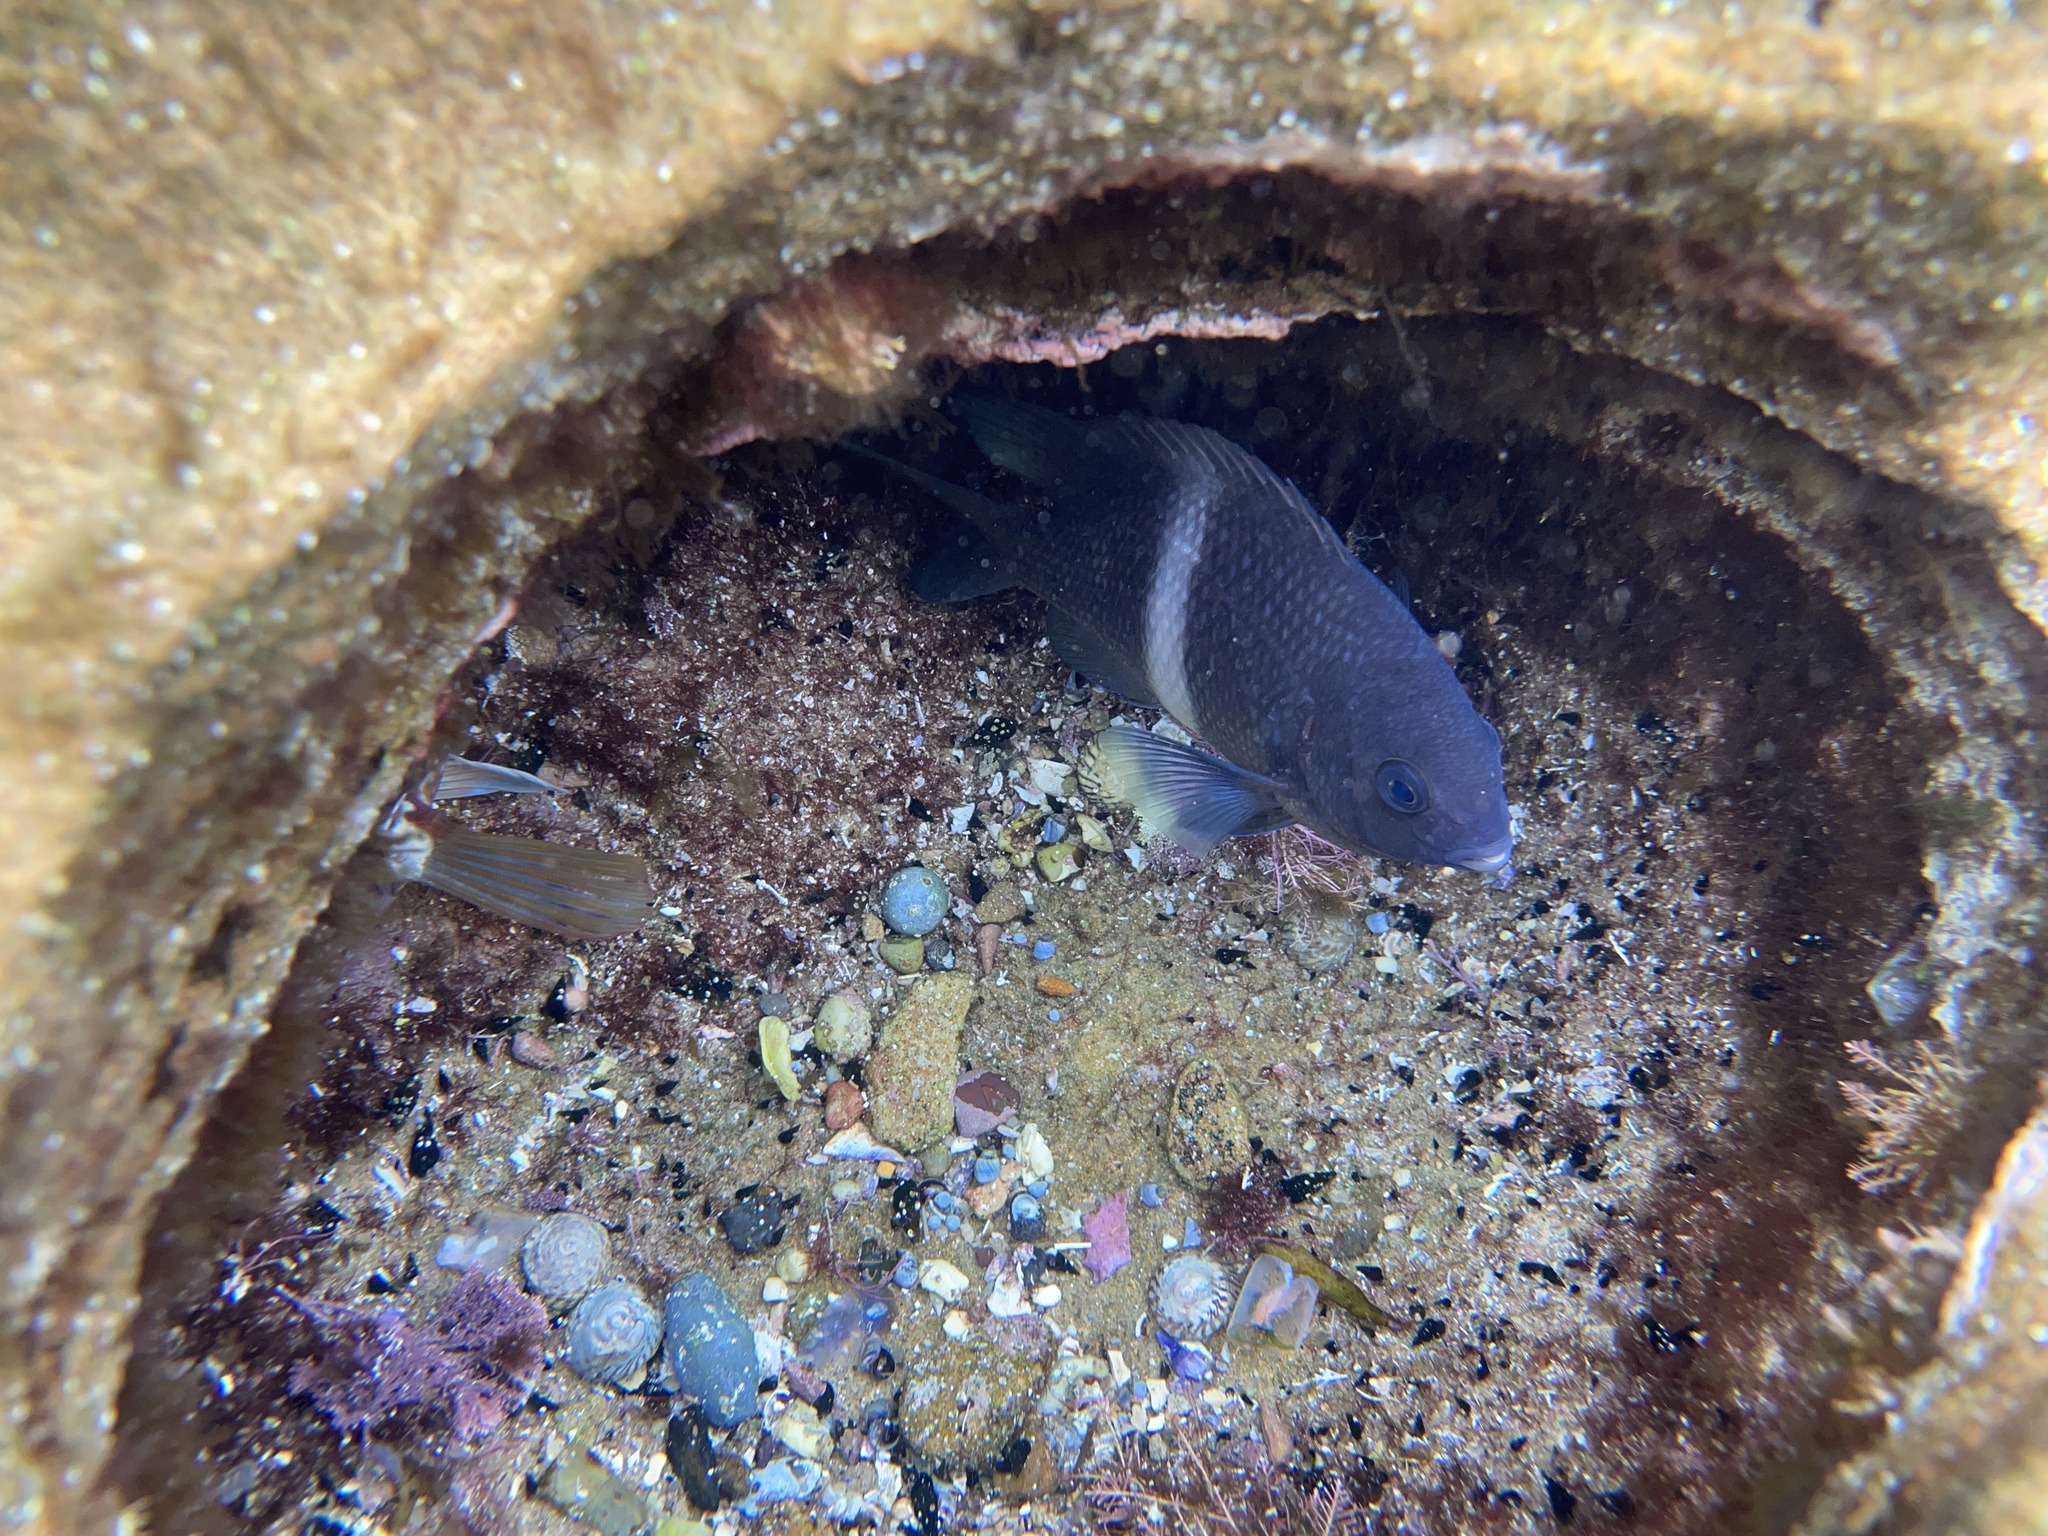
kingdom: Animalia
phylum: Chordata
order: Perciformes
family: Pomacentridae
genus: Parma
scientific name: Parma unifasciata
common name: Girdled parma
